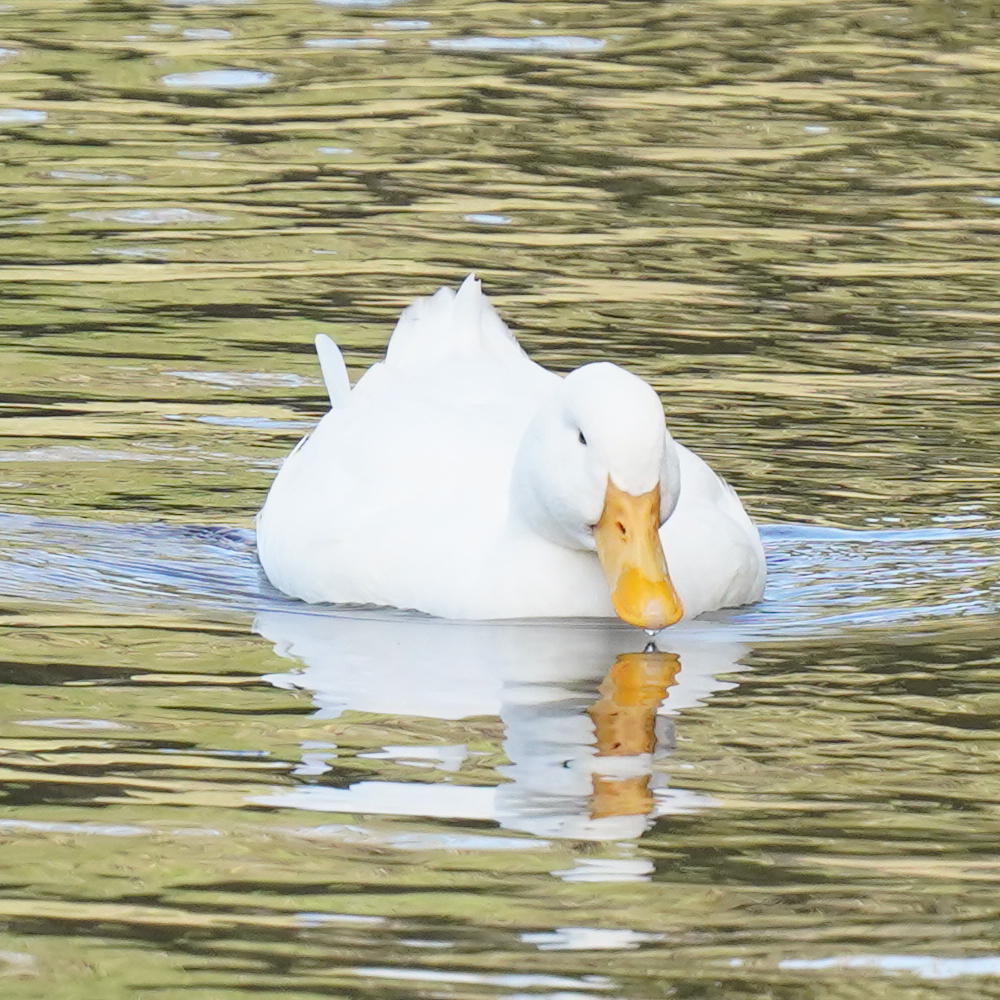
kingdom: Animalia
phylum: Chordata
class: Aves
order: Anseriformes
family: Anatidae
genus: Anas
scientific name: Anas platyrhynchos
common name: Mallard
